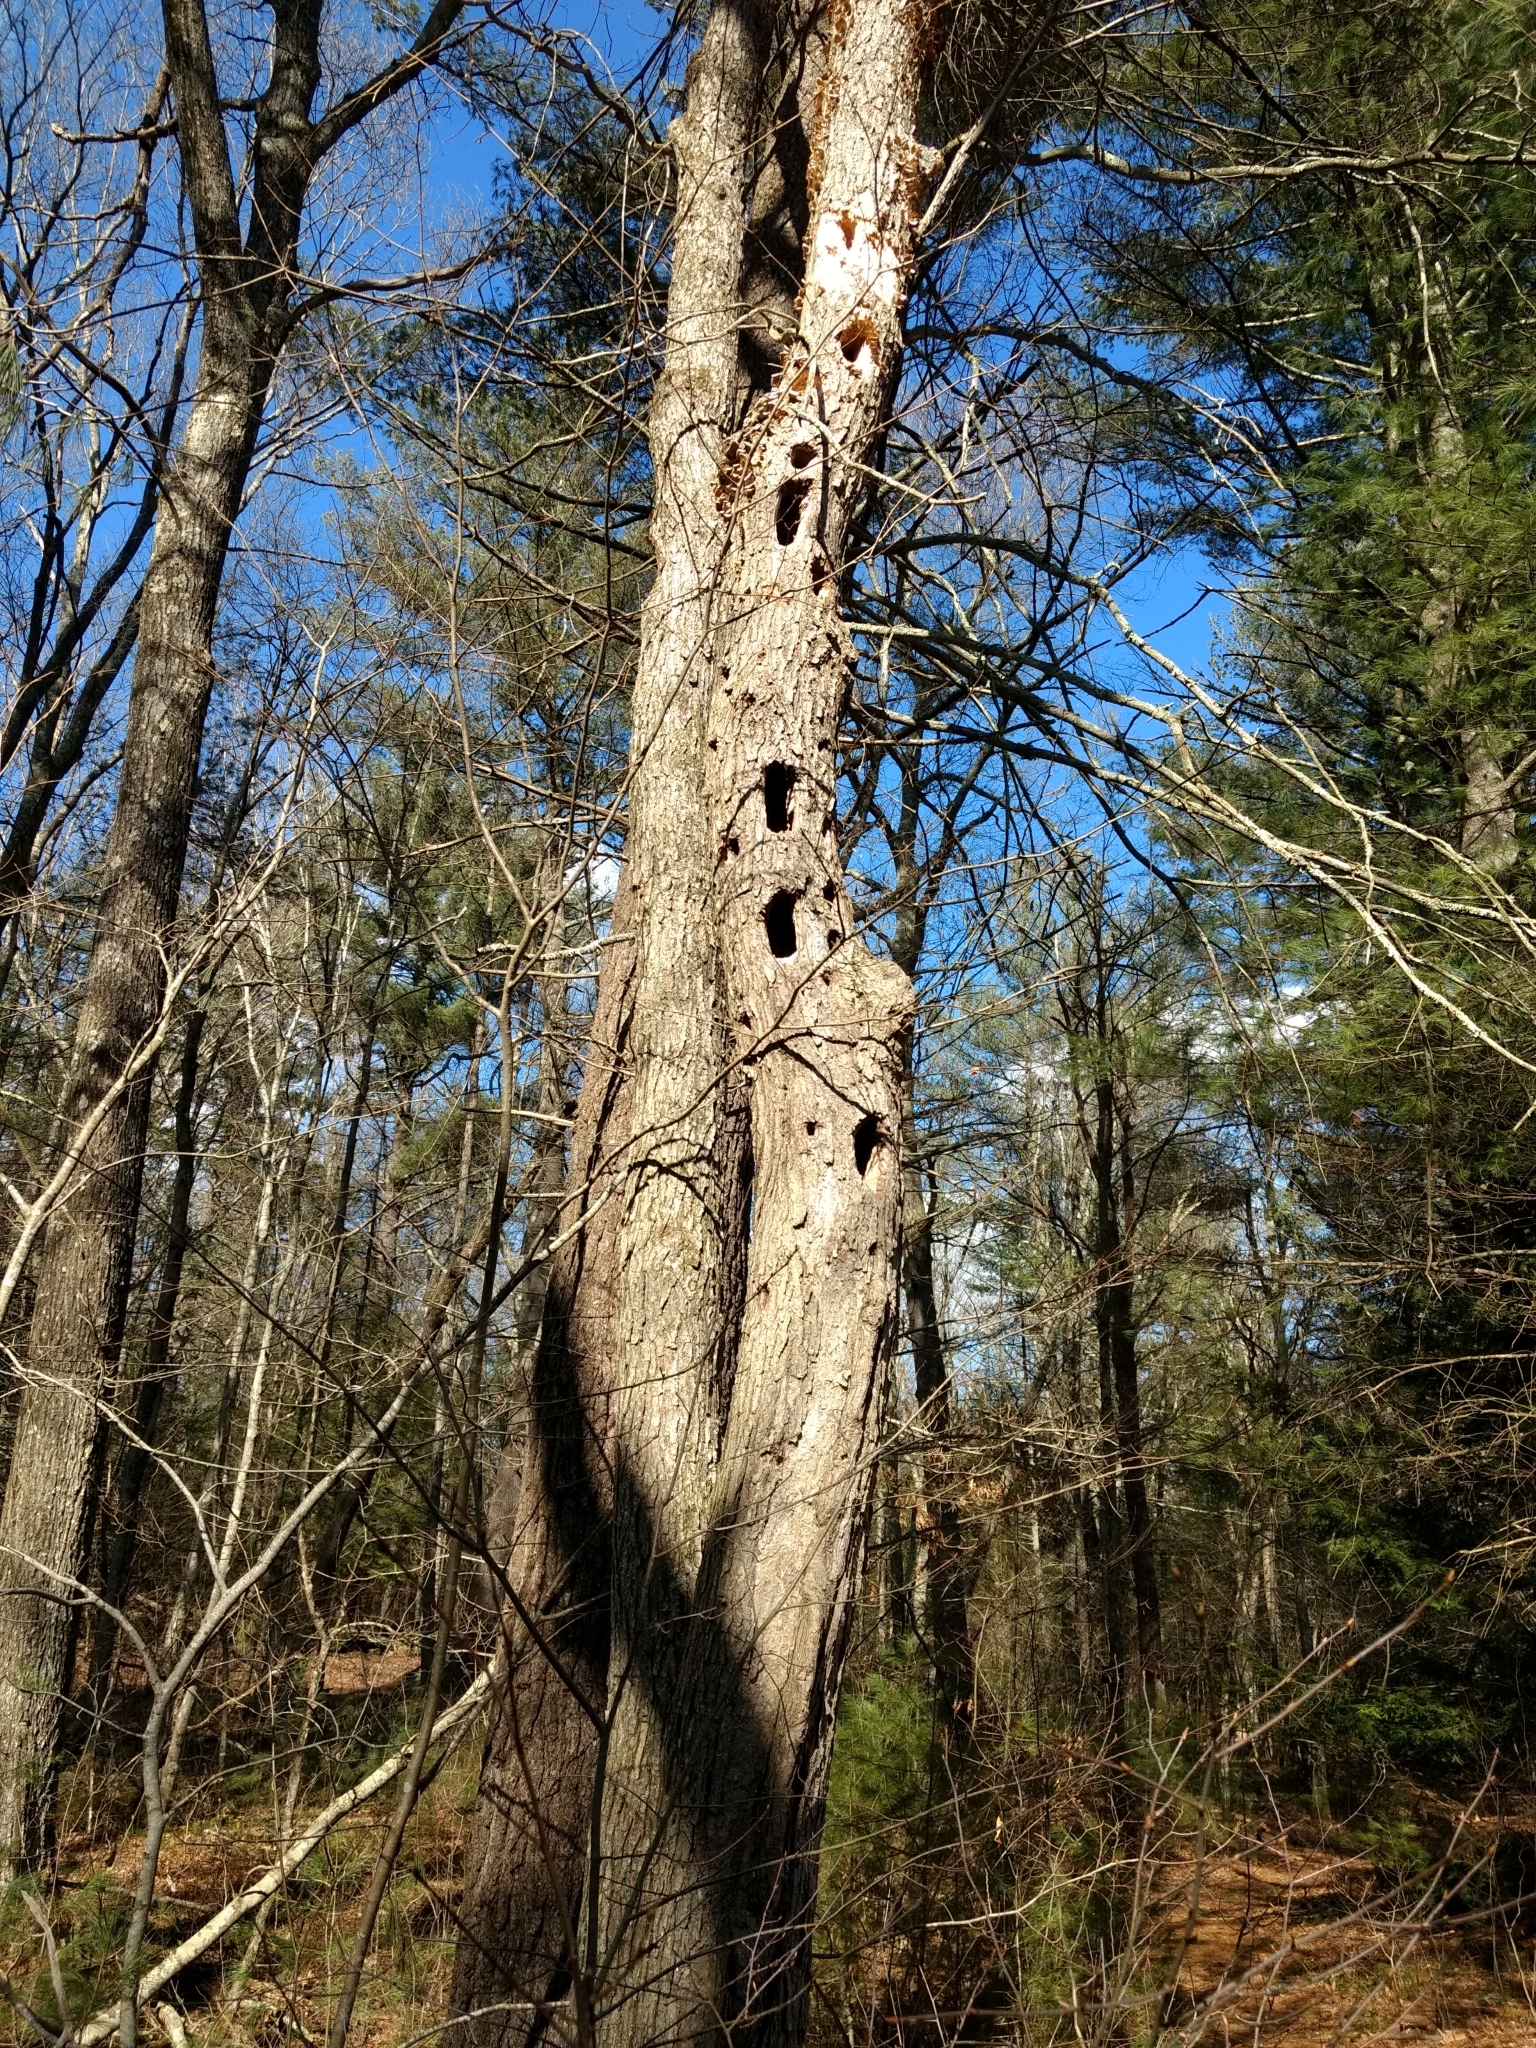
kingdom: Animalia
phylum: Chordata
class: Aves
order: Piciformes
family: Picidae
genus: Dryocopus
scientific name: Dryocopus pileatus
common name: Pileated woodpecker
